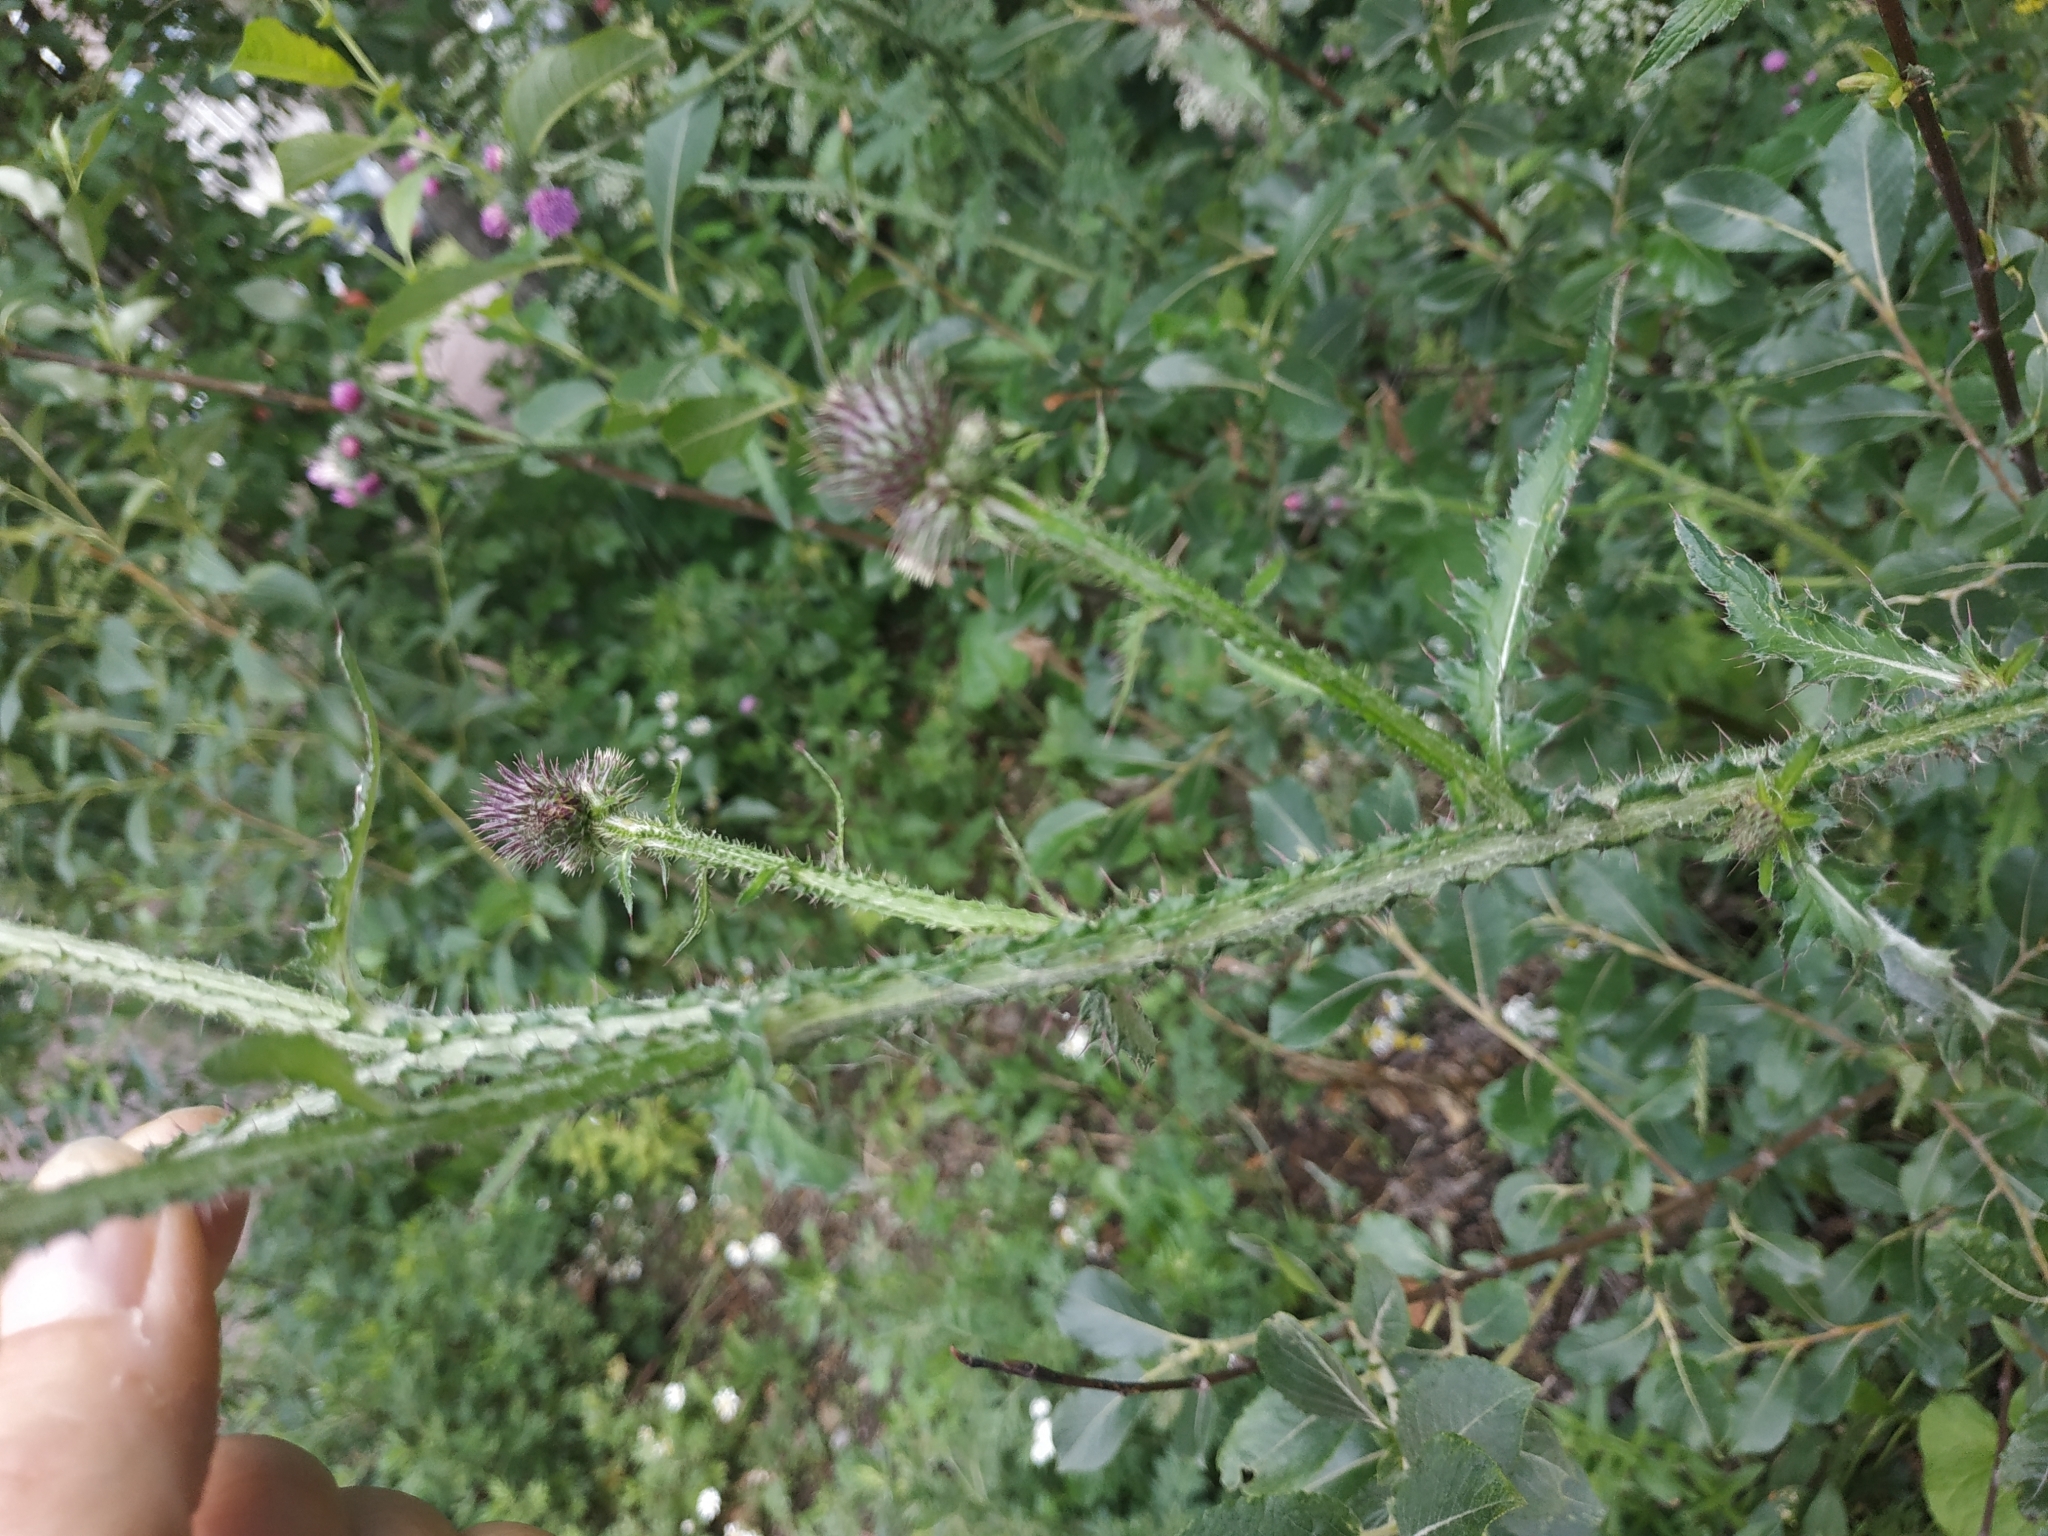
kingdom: Plantae
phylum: Tracheophyta
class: Magnoliopsida
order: Asterales
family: Asteraceae
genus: Carduus
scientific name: Carduus crispus
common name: Welted thistle
